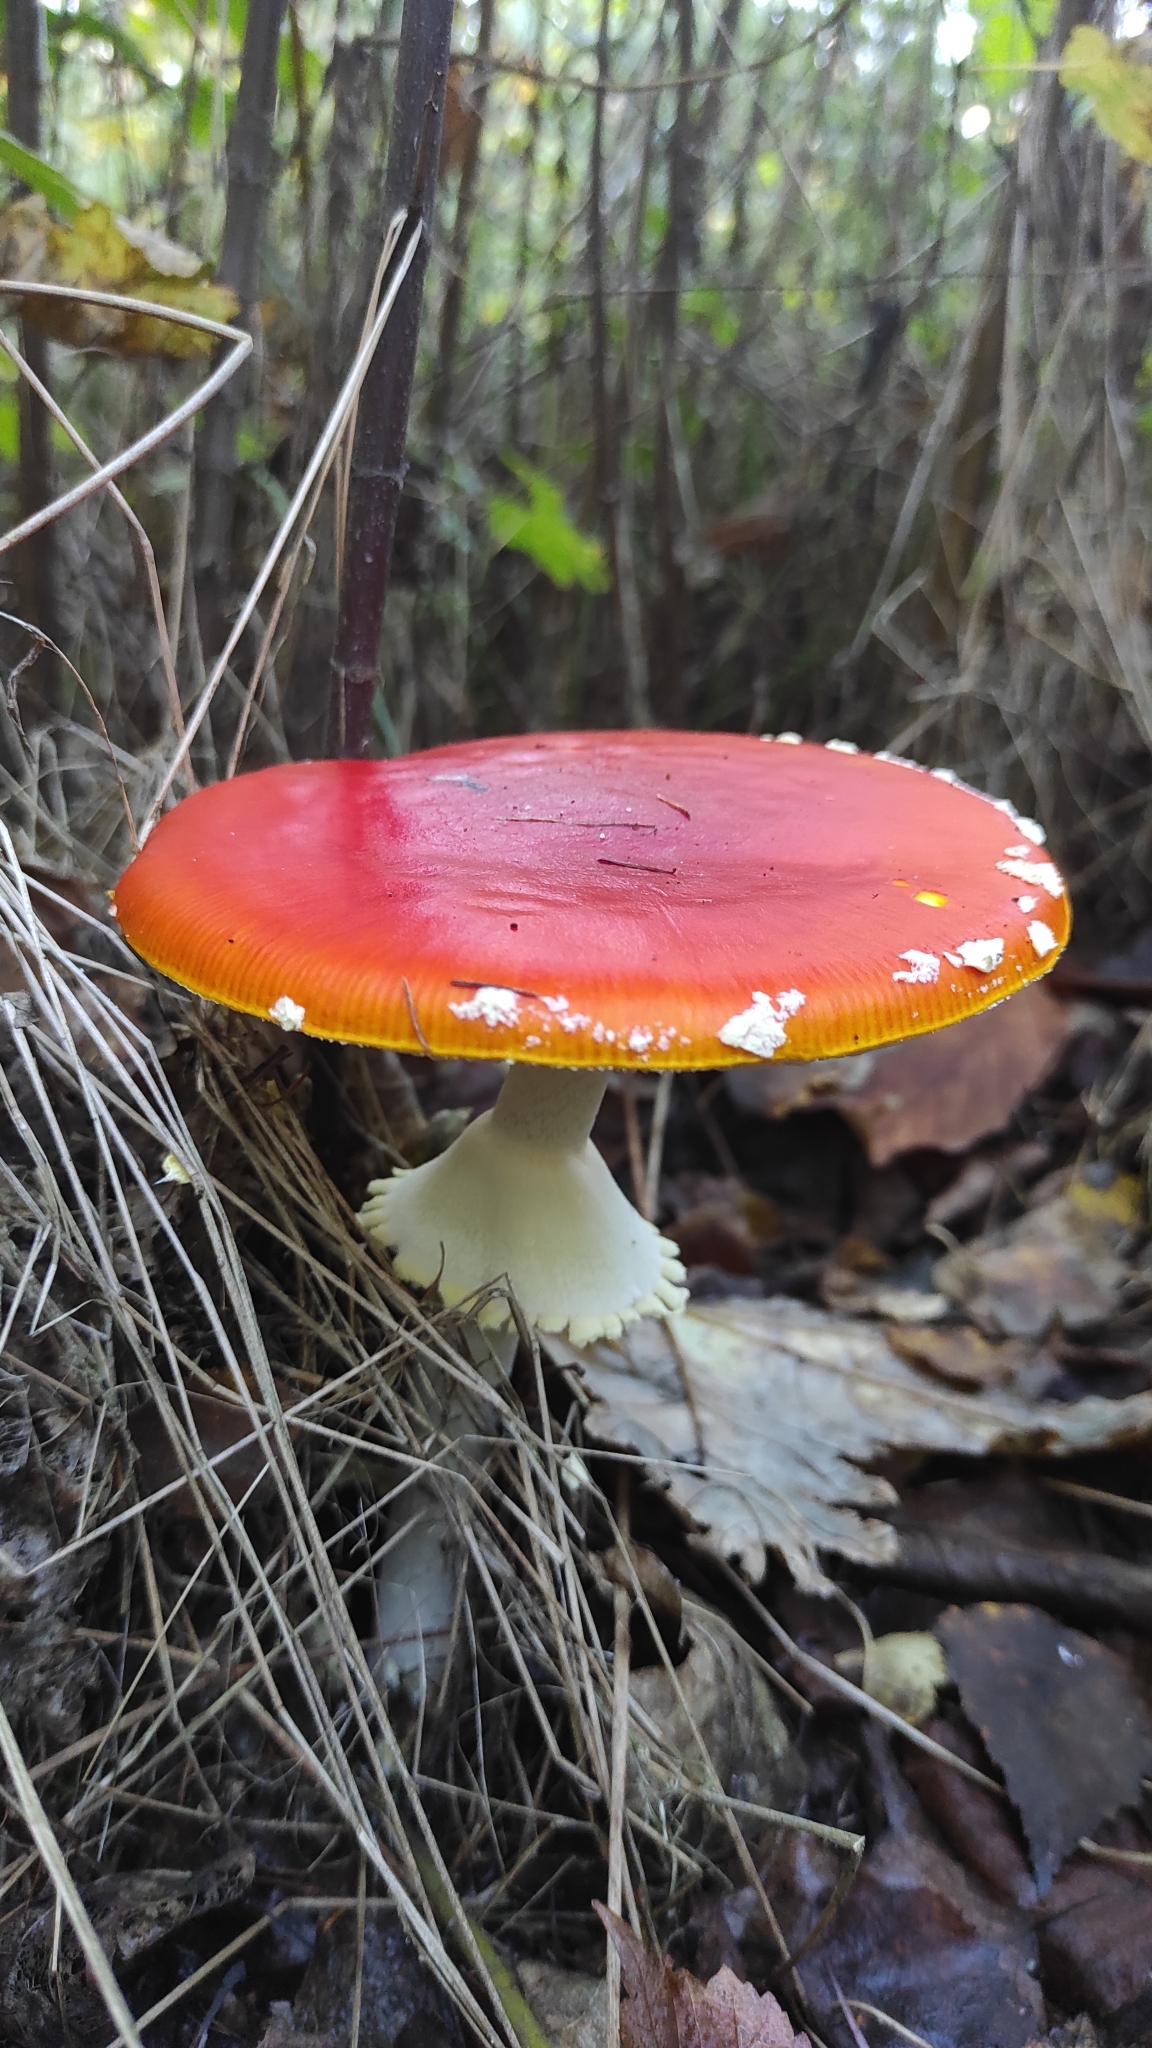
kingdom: Fungi
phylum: Basidiomycota
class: Agaricomycetes
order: Agaricales
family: Amanitaceae
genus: Amanita
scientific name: Amanita muscaria
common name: Fly agaric
